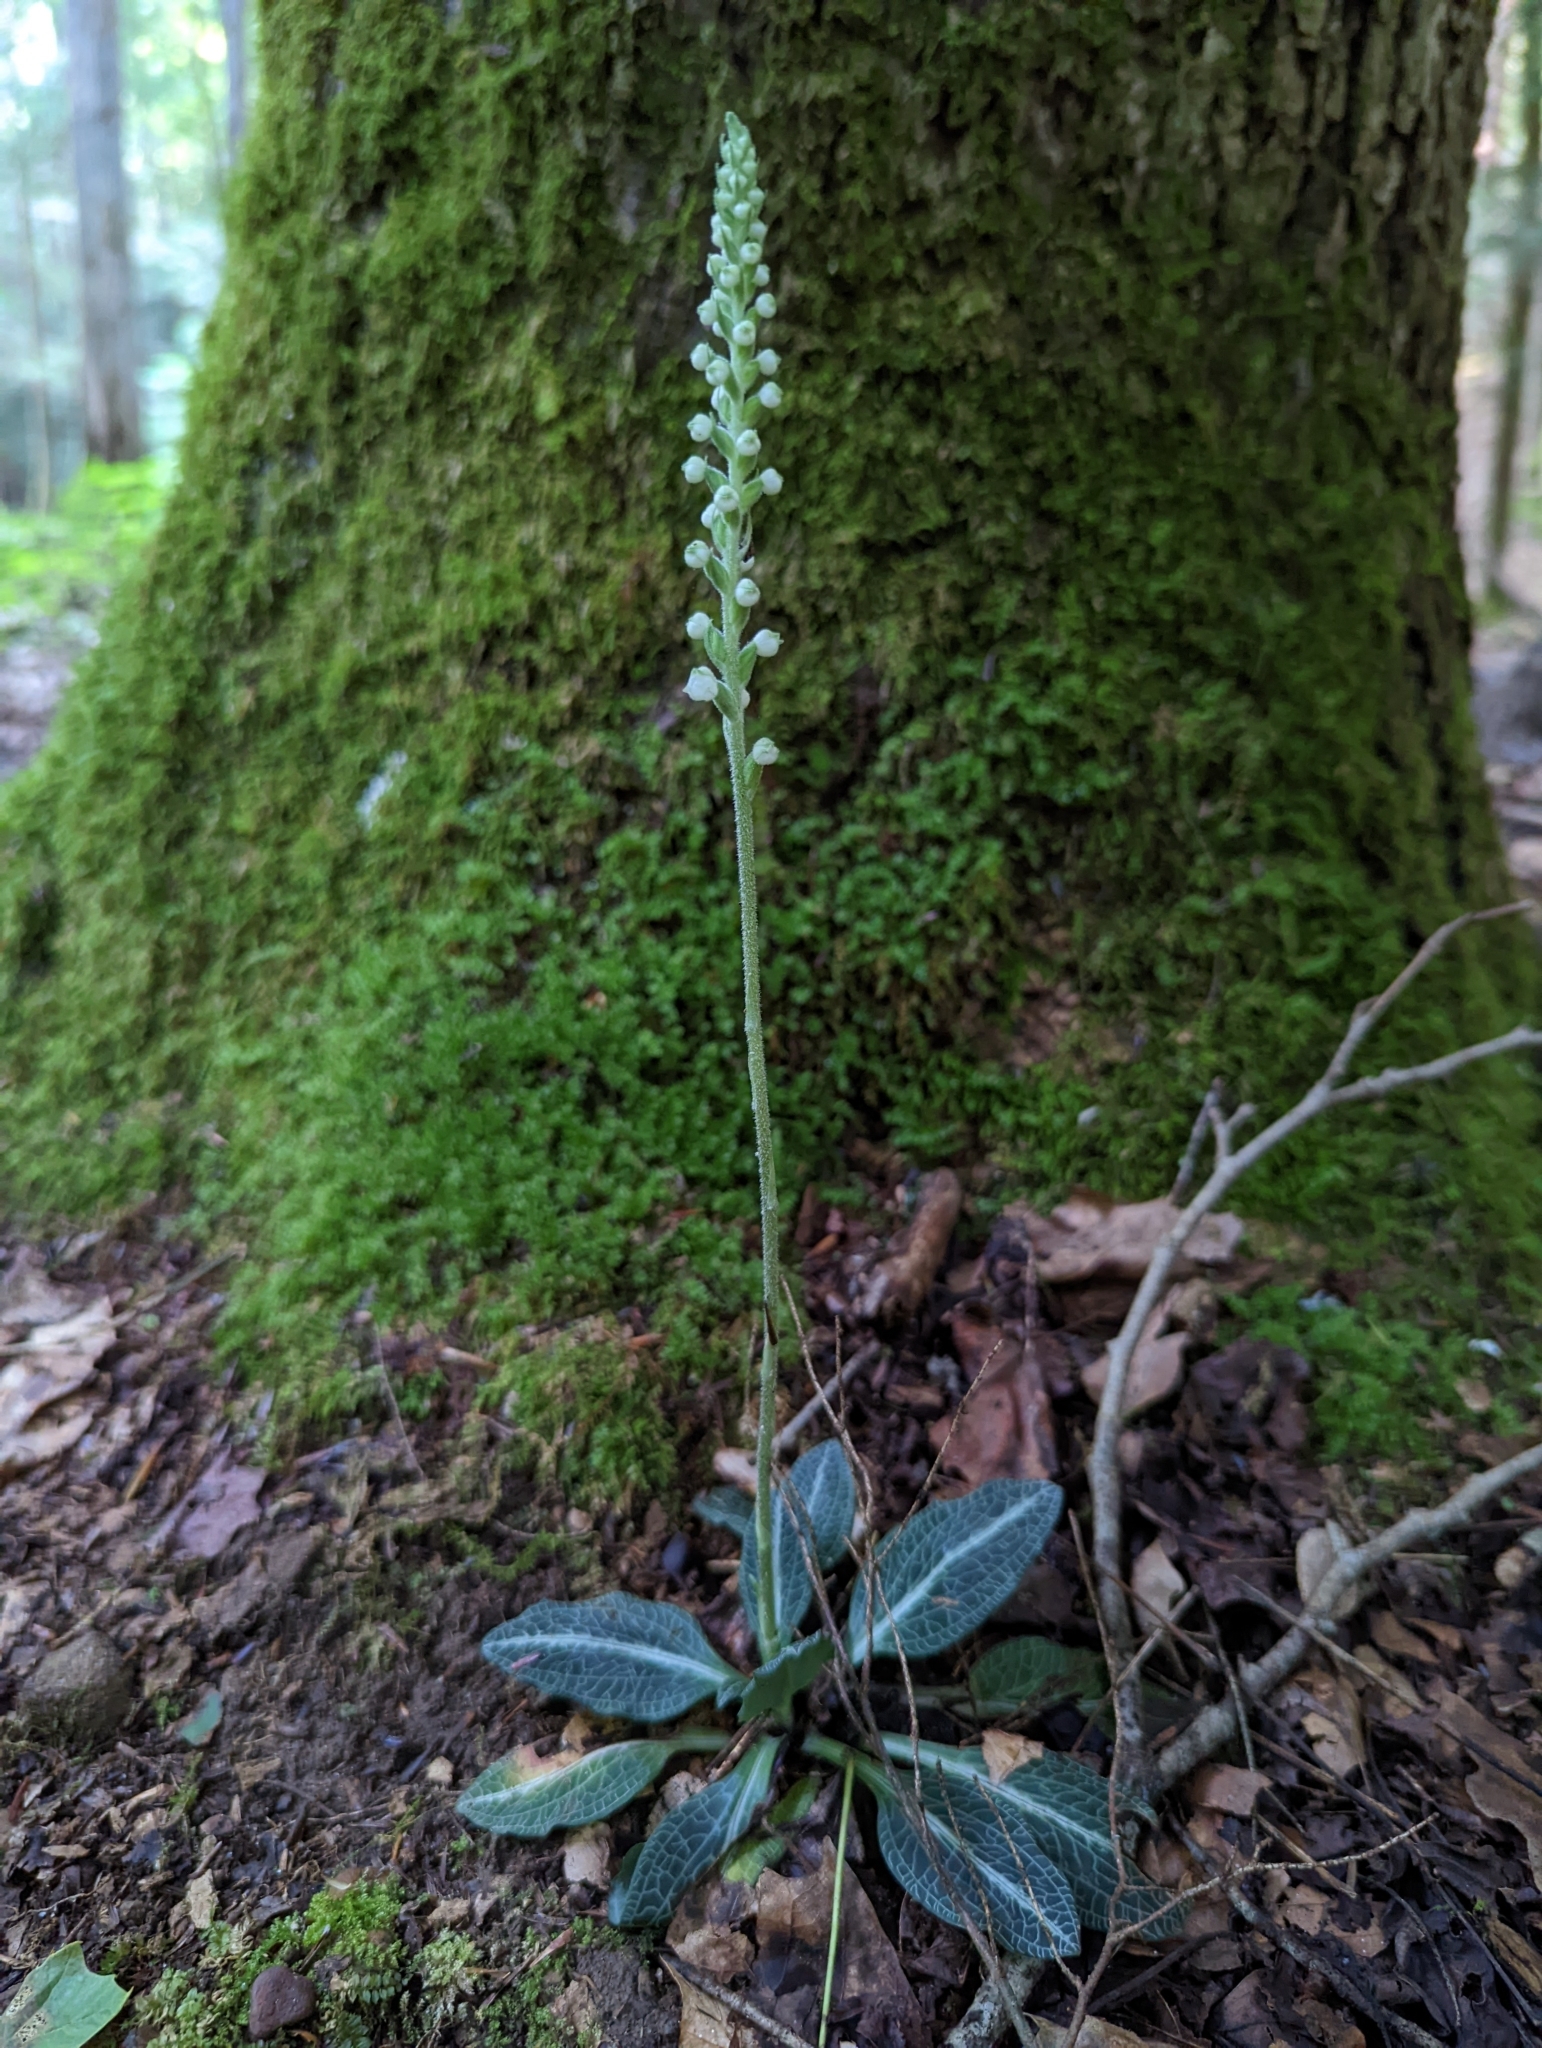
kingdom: Plantae
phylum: Tracheophyta
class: Liliopsida
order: Asparagales
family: Orchidaceae
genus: Goodyera
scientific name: Goodyera pubescens
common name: Downy rattlesnake-plantain
